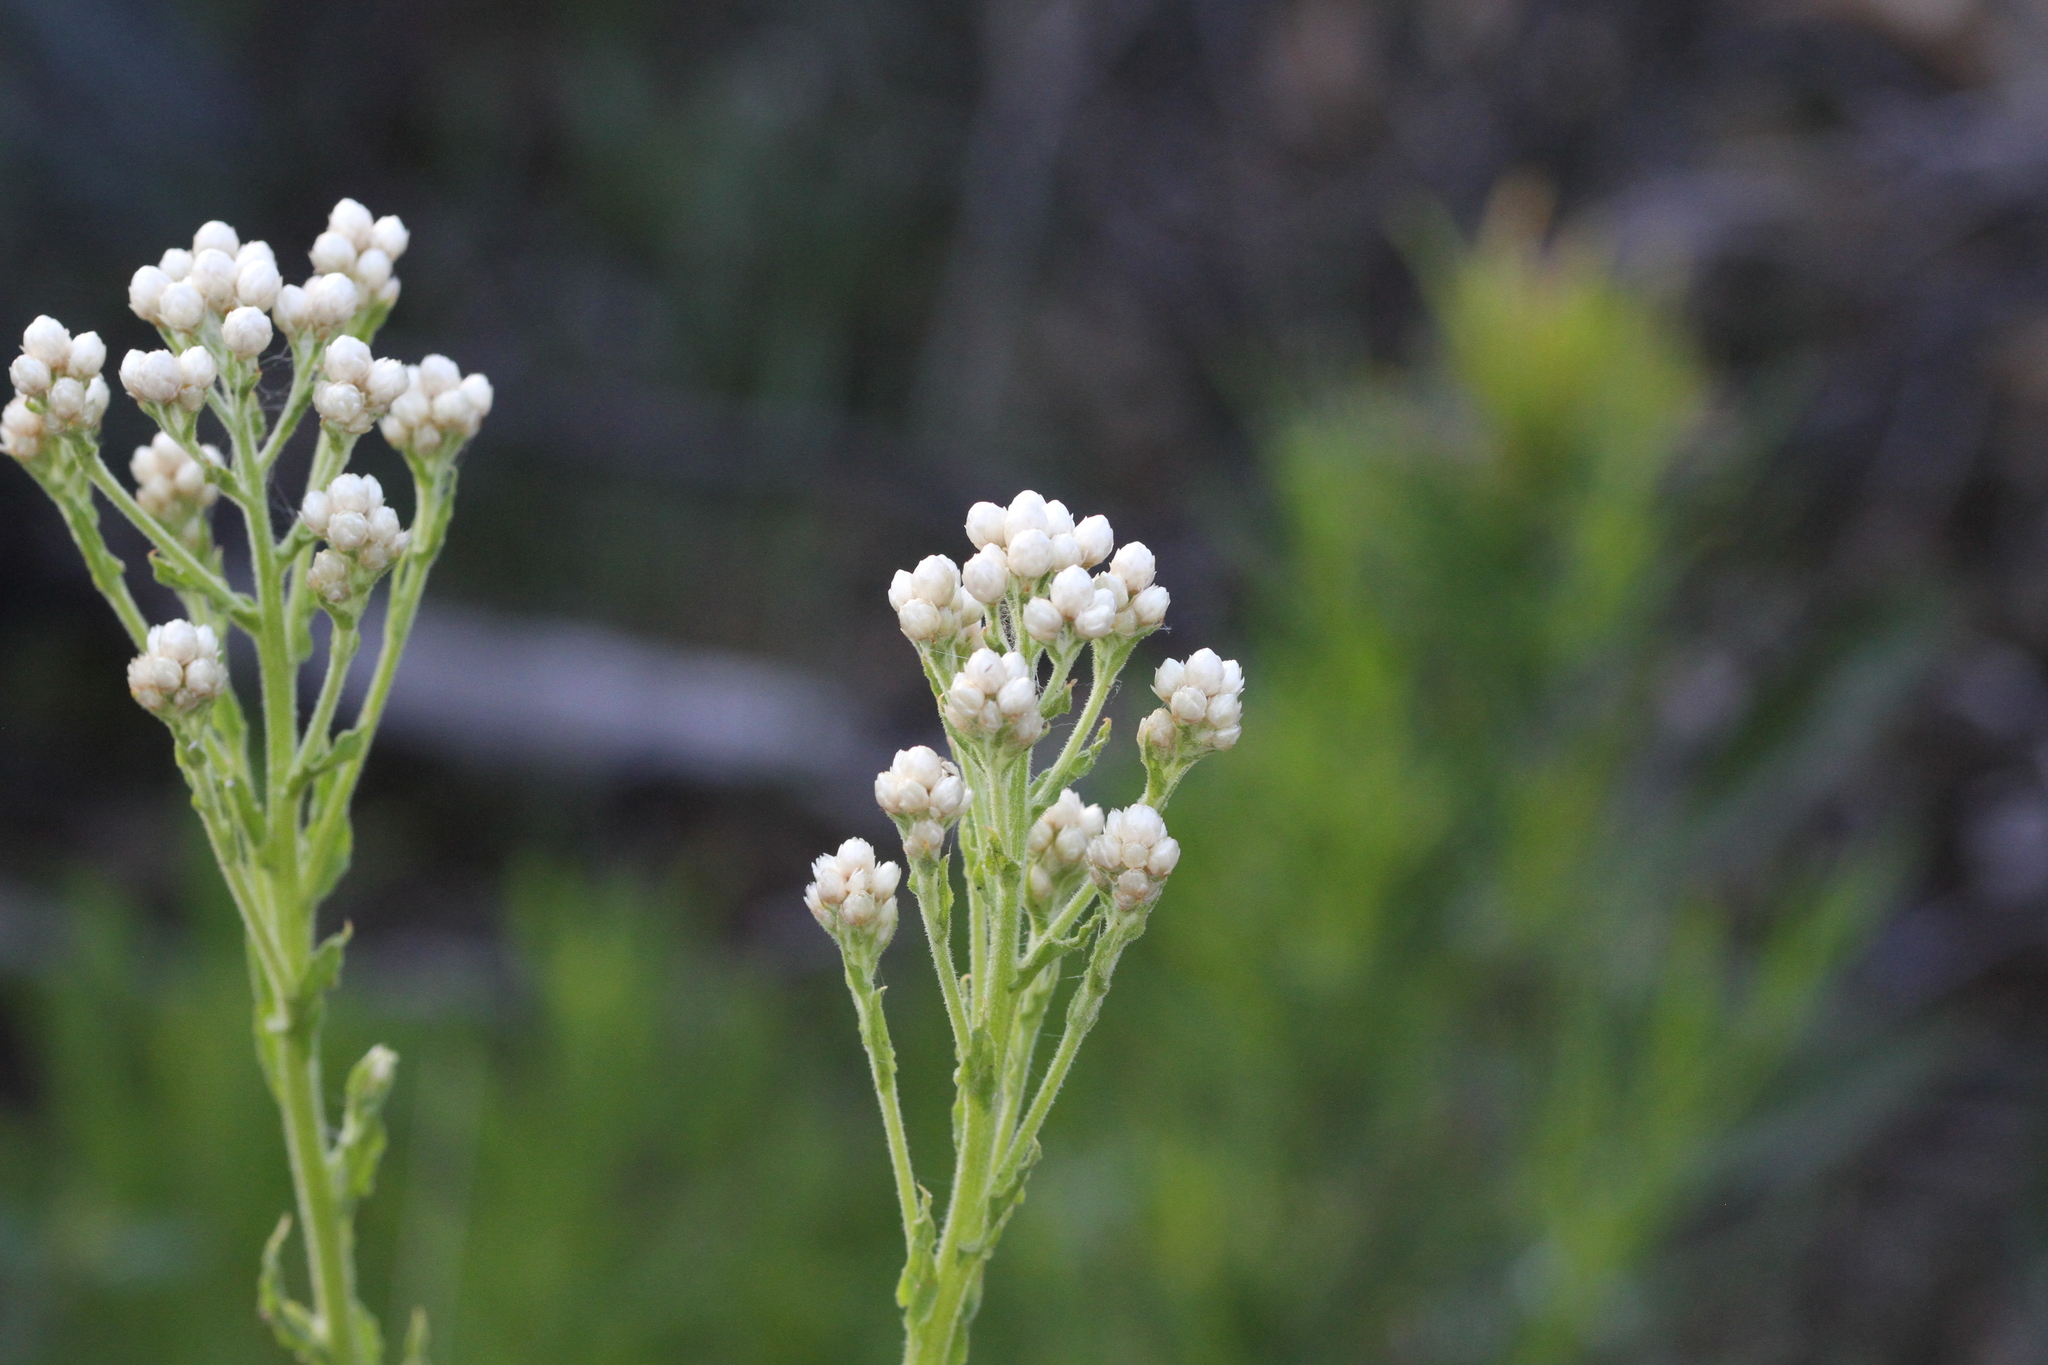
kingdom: Plantae
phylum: Tracheophyta
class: Magnoliopsida
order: Asterales
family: Asteraceae
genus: Pseudognaphalium
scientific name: Pseudognaphalium californicum
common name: California rabbit-tobacco
